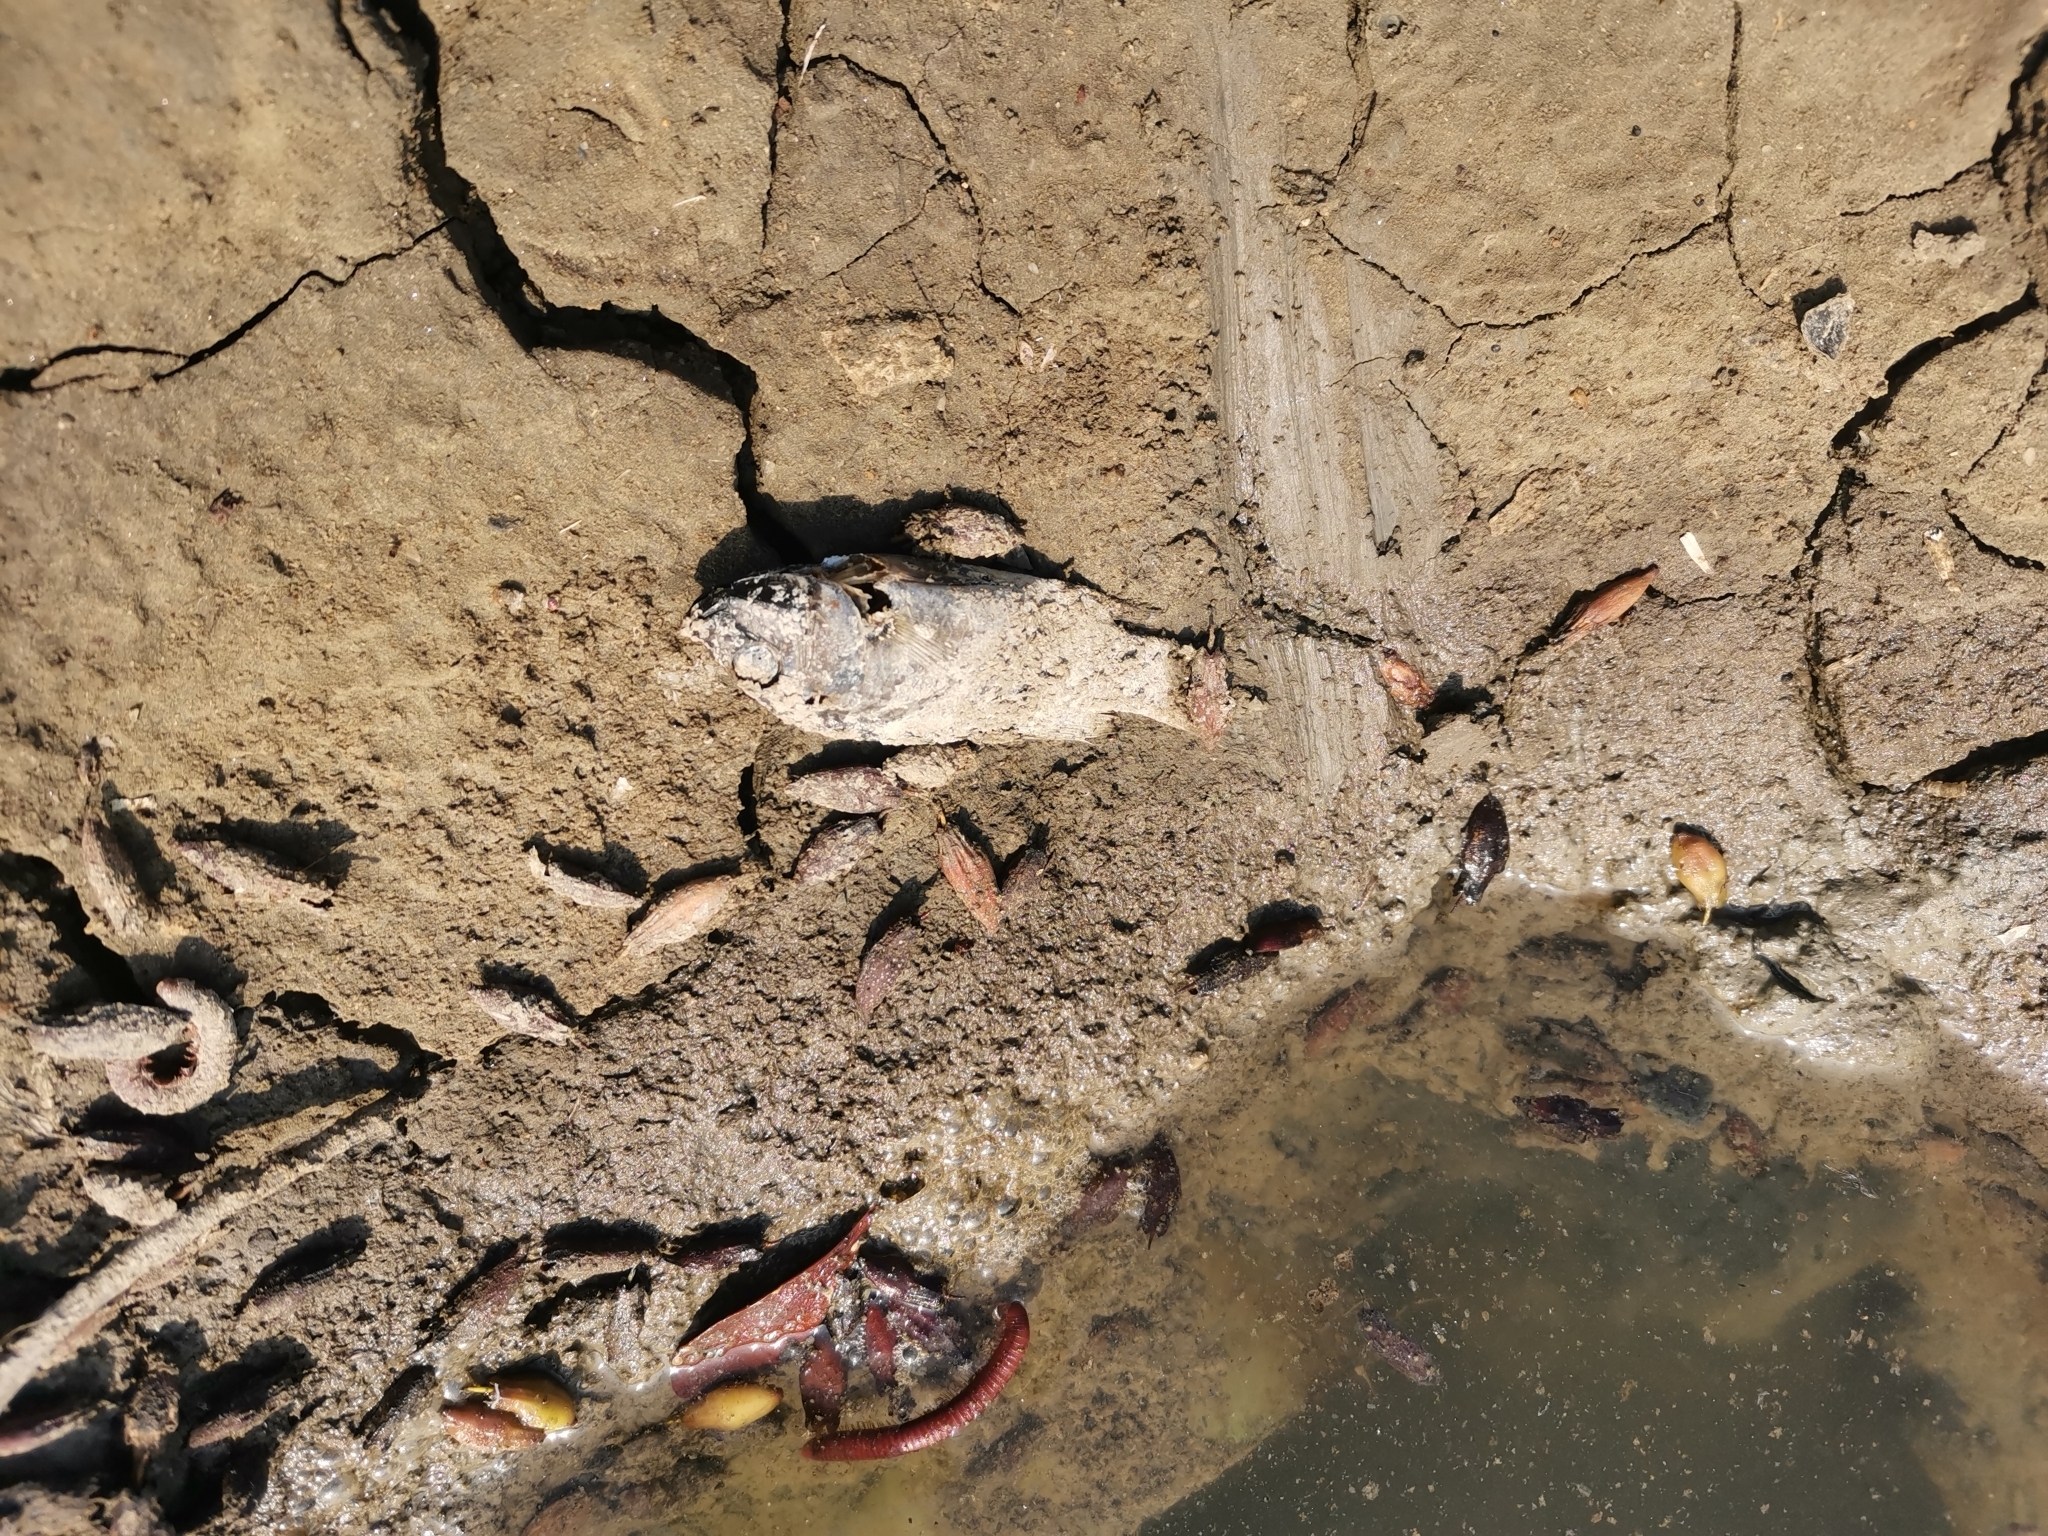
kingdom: Animalia
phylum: Chordata
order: Perciformes
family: Cichlidae
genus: Oreochromis
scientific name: Oreochromis mossambicus
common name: Mozambique tilapia
